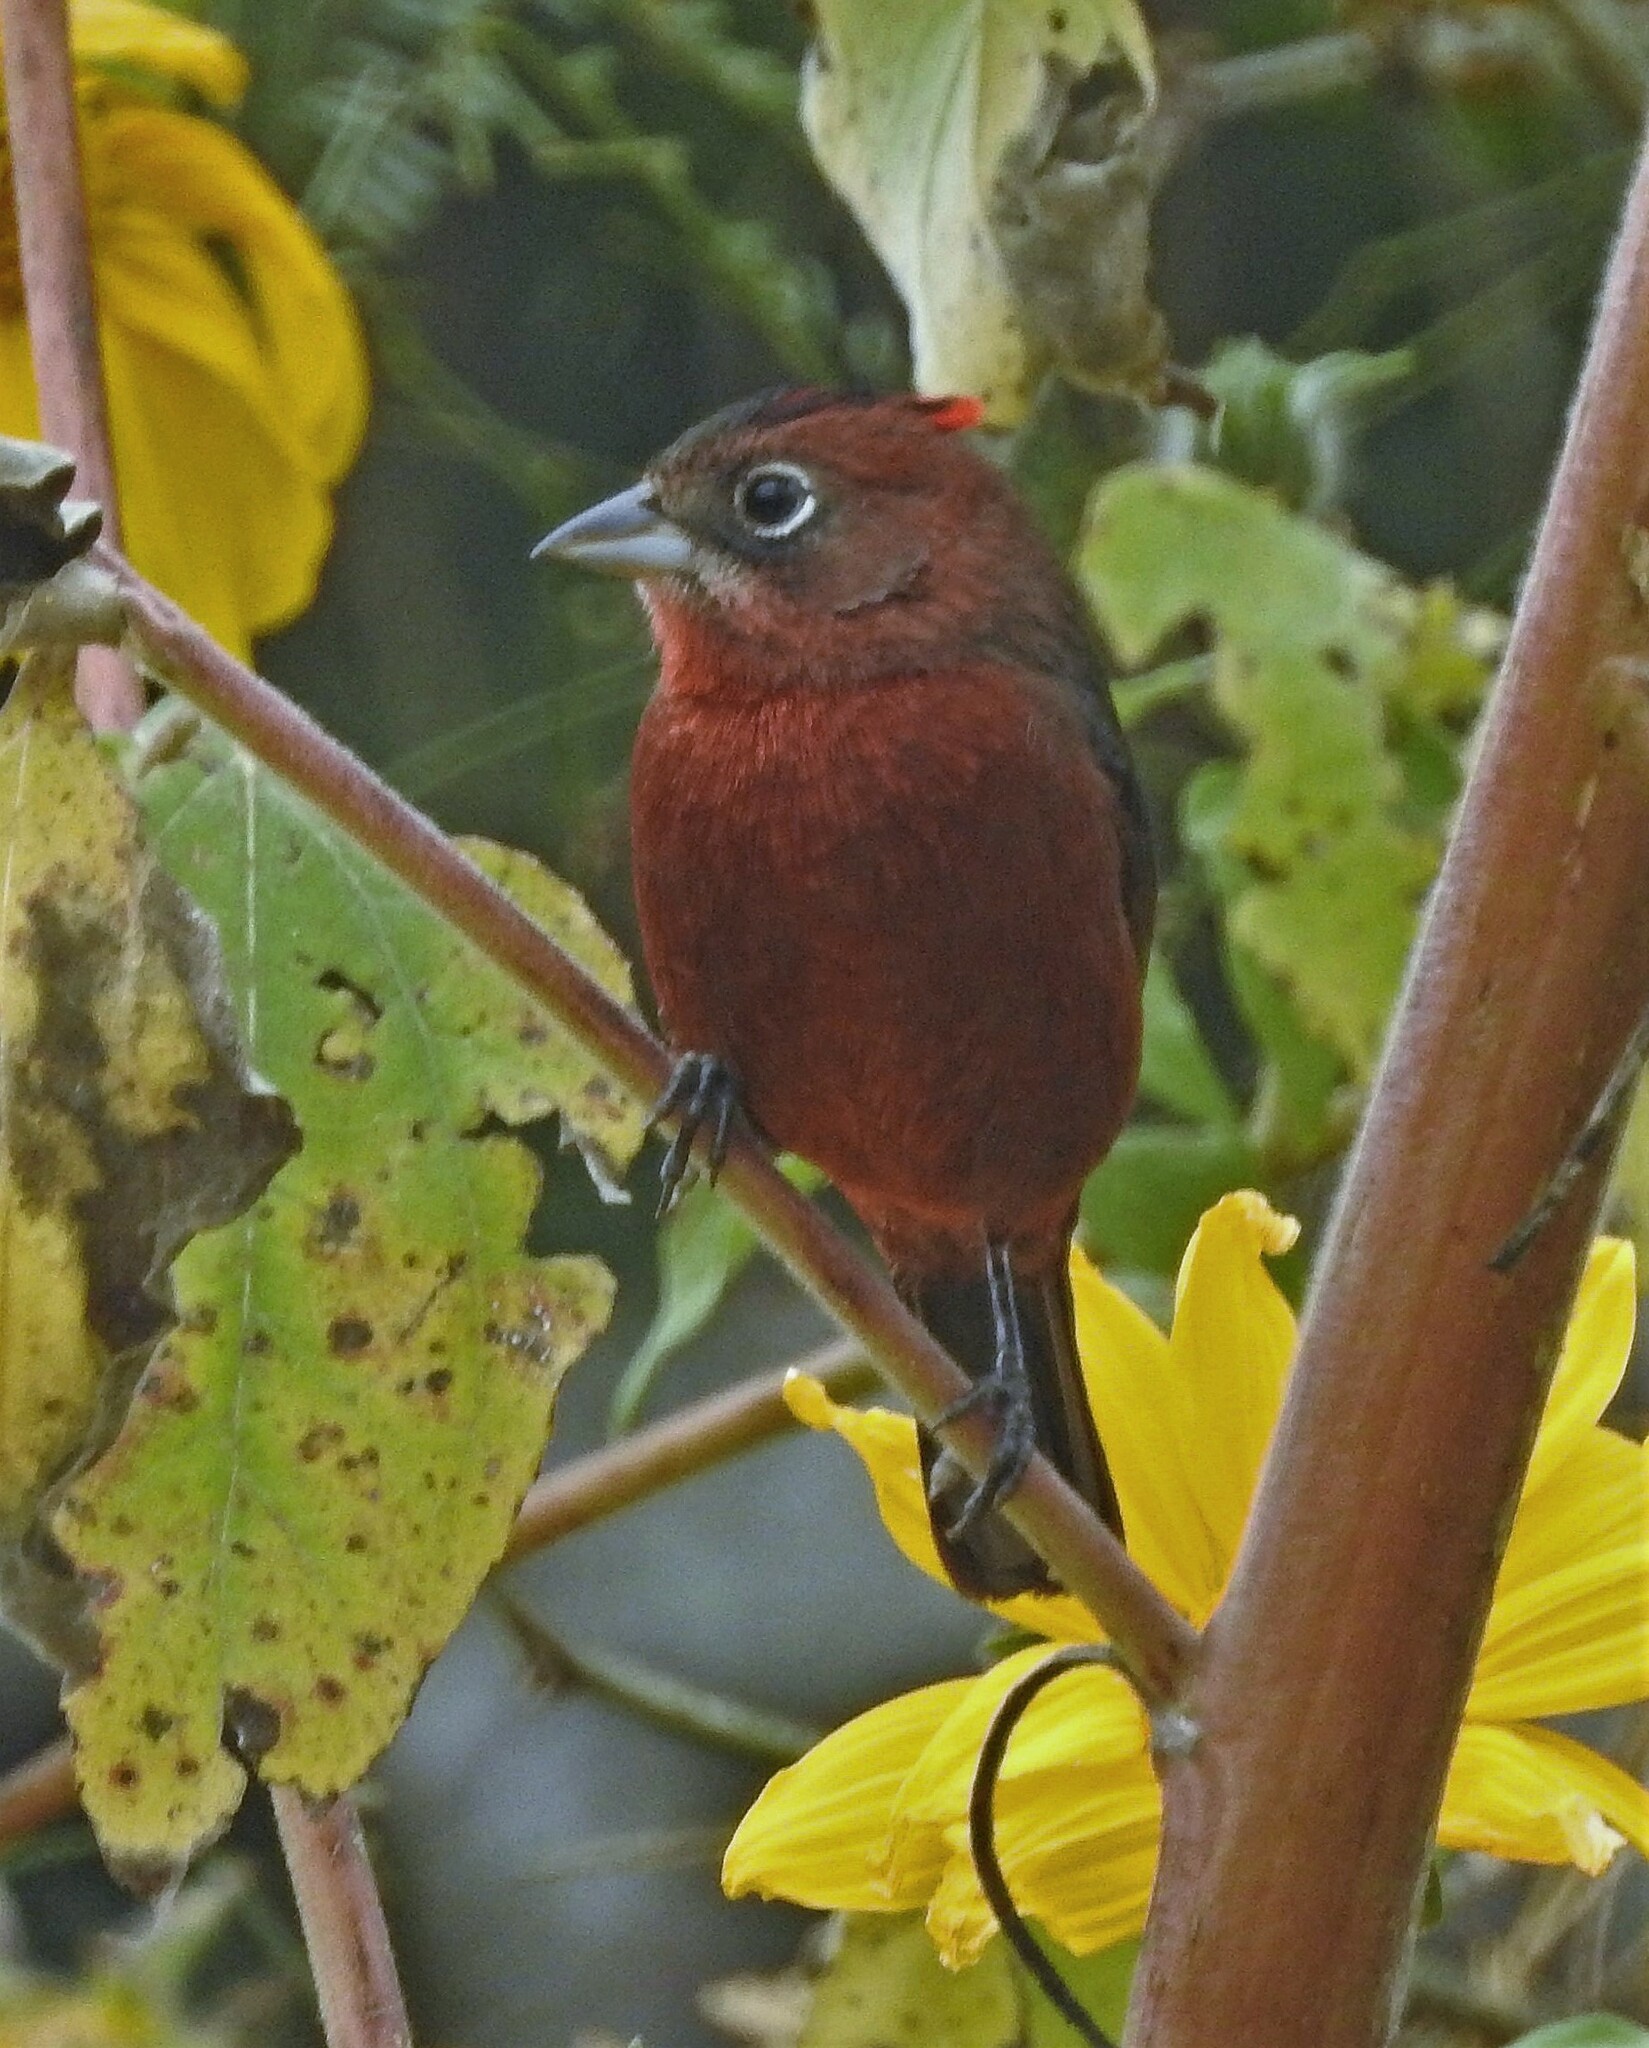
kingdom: Animalia
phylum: Chordata
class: Aves
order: Passeriformes
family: Thraupidae
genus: Coryphospingus
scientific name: Coryphospingus cucullatus
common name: Red pileated finch
